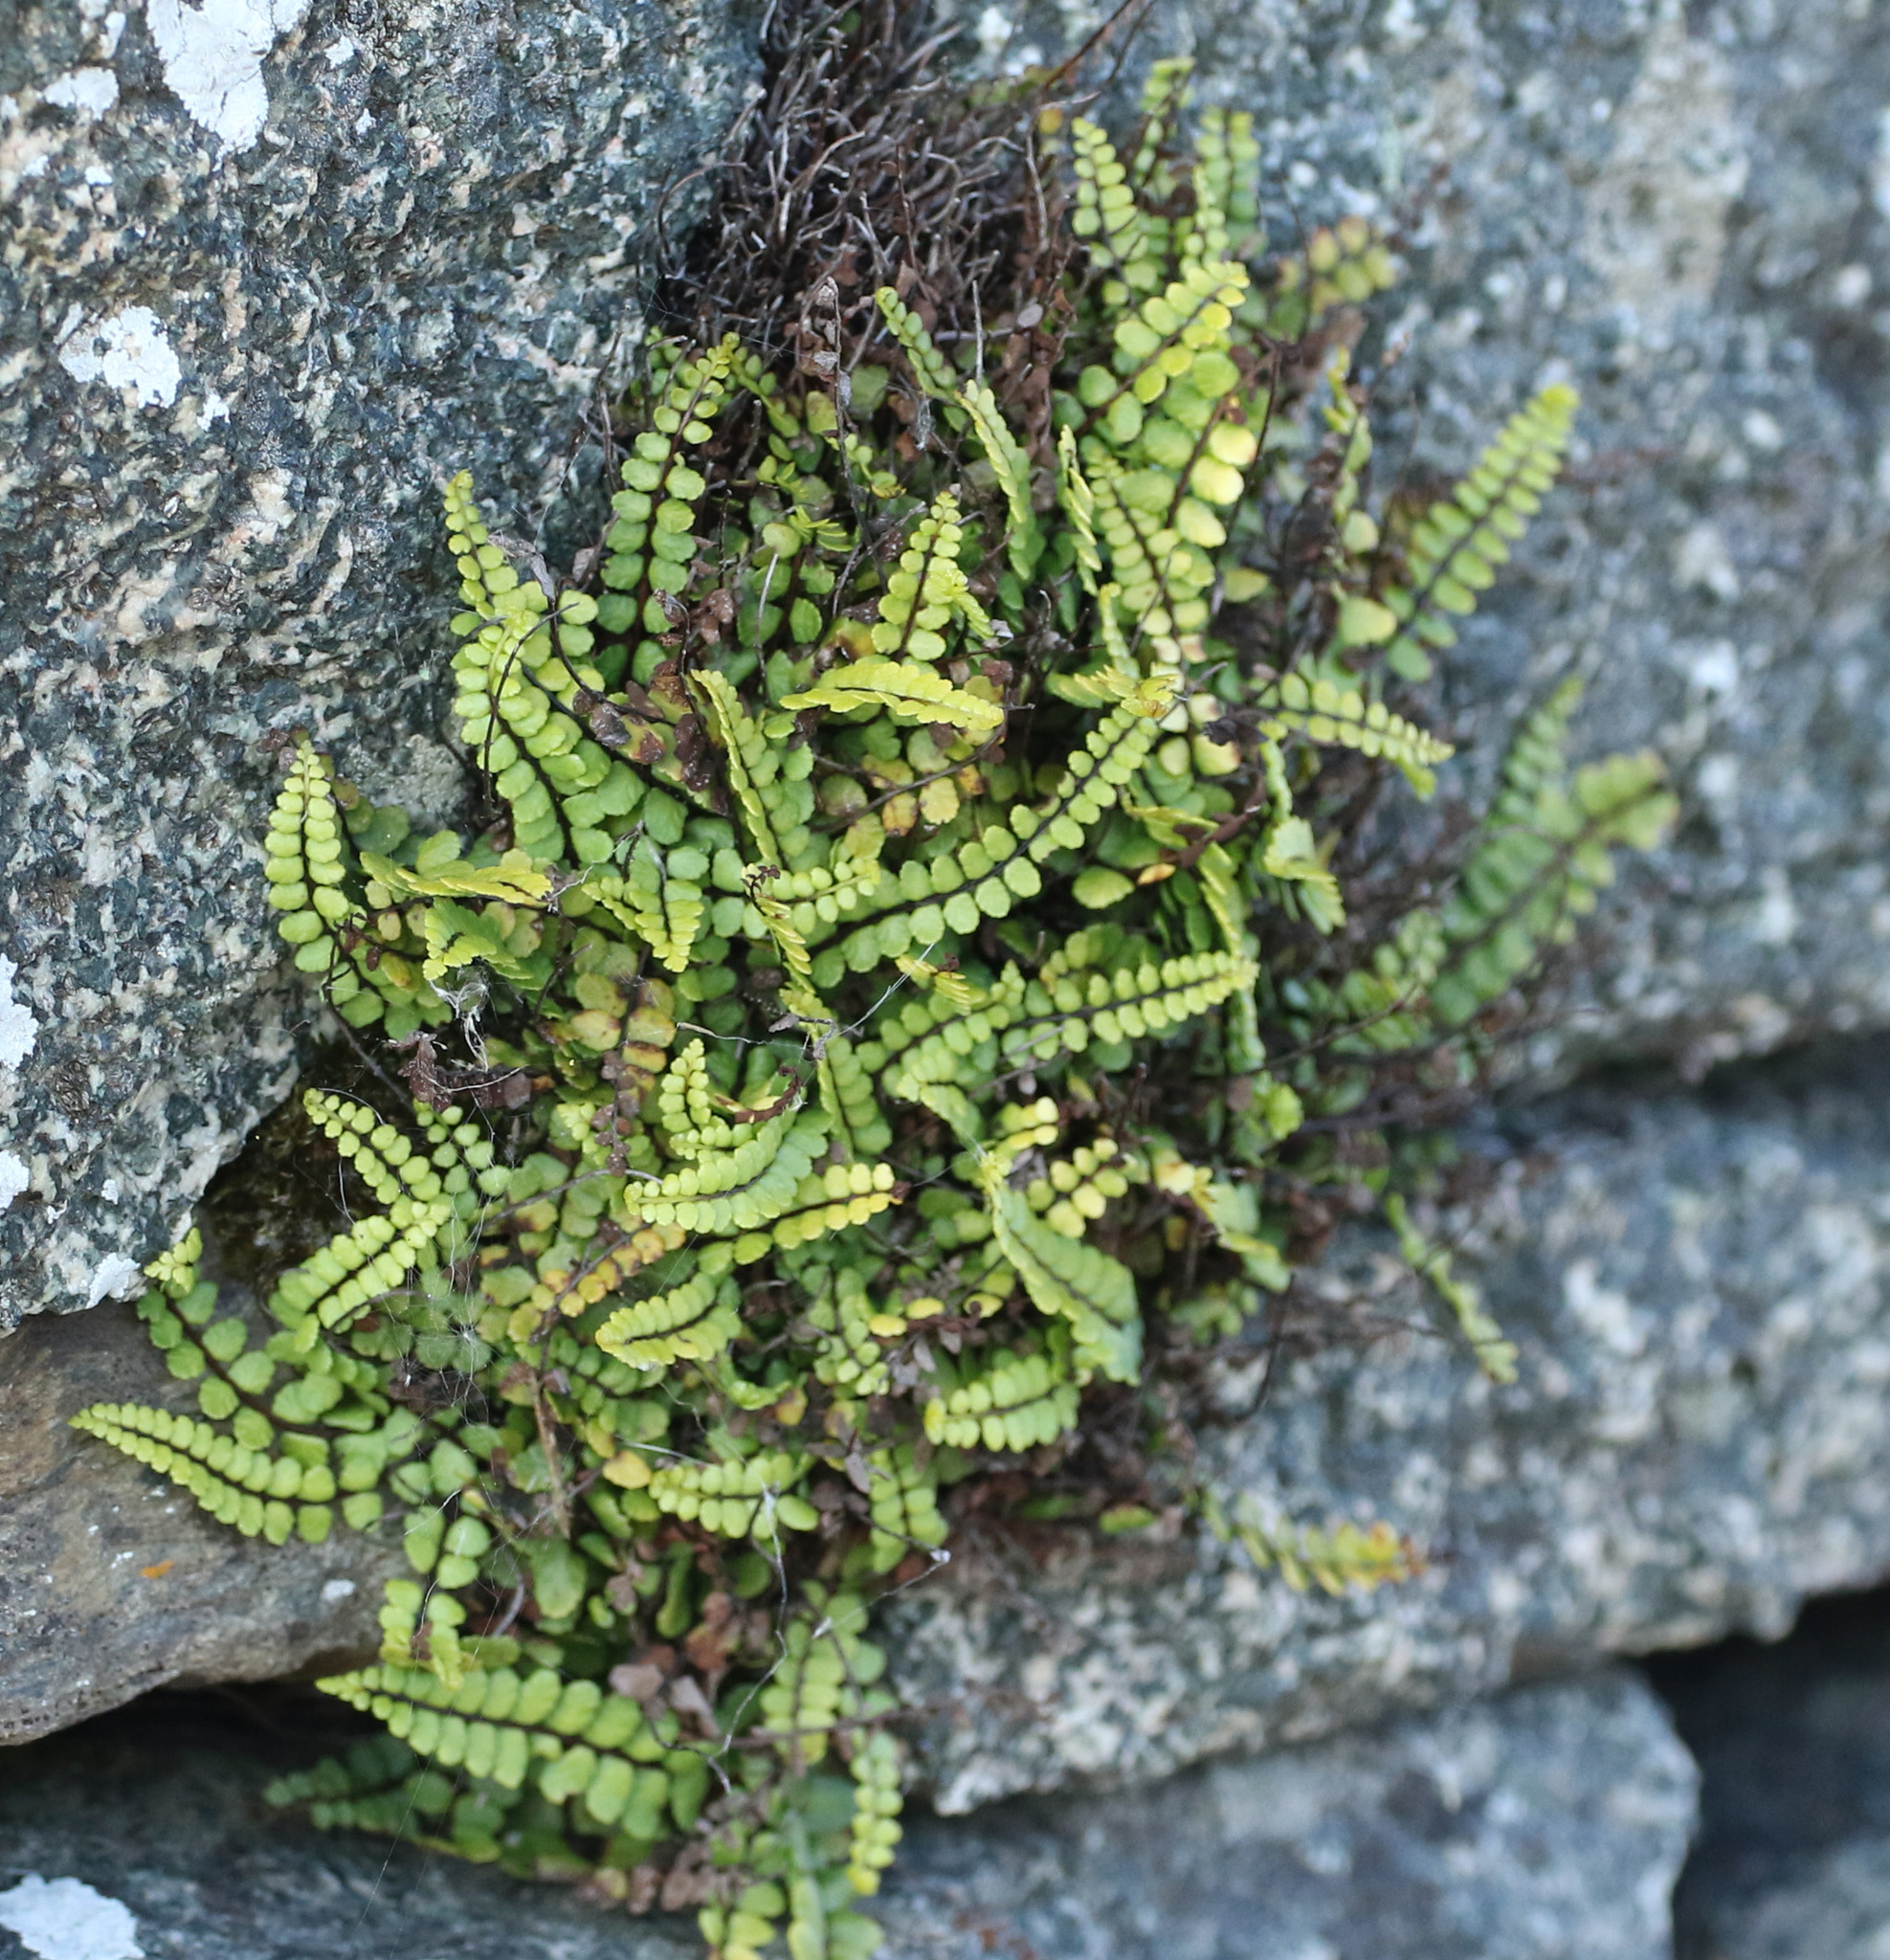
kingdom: Plantae
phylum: Tracheophyta
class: Polypodiopsida
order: Polypodiales
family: Aspleniaceae
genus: Asplenium
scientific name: Asplenium trichomanes
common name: Maidenhair spleenwort
